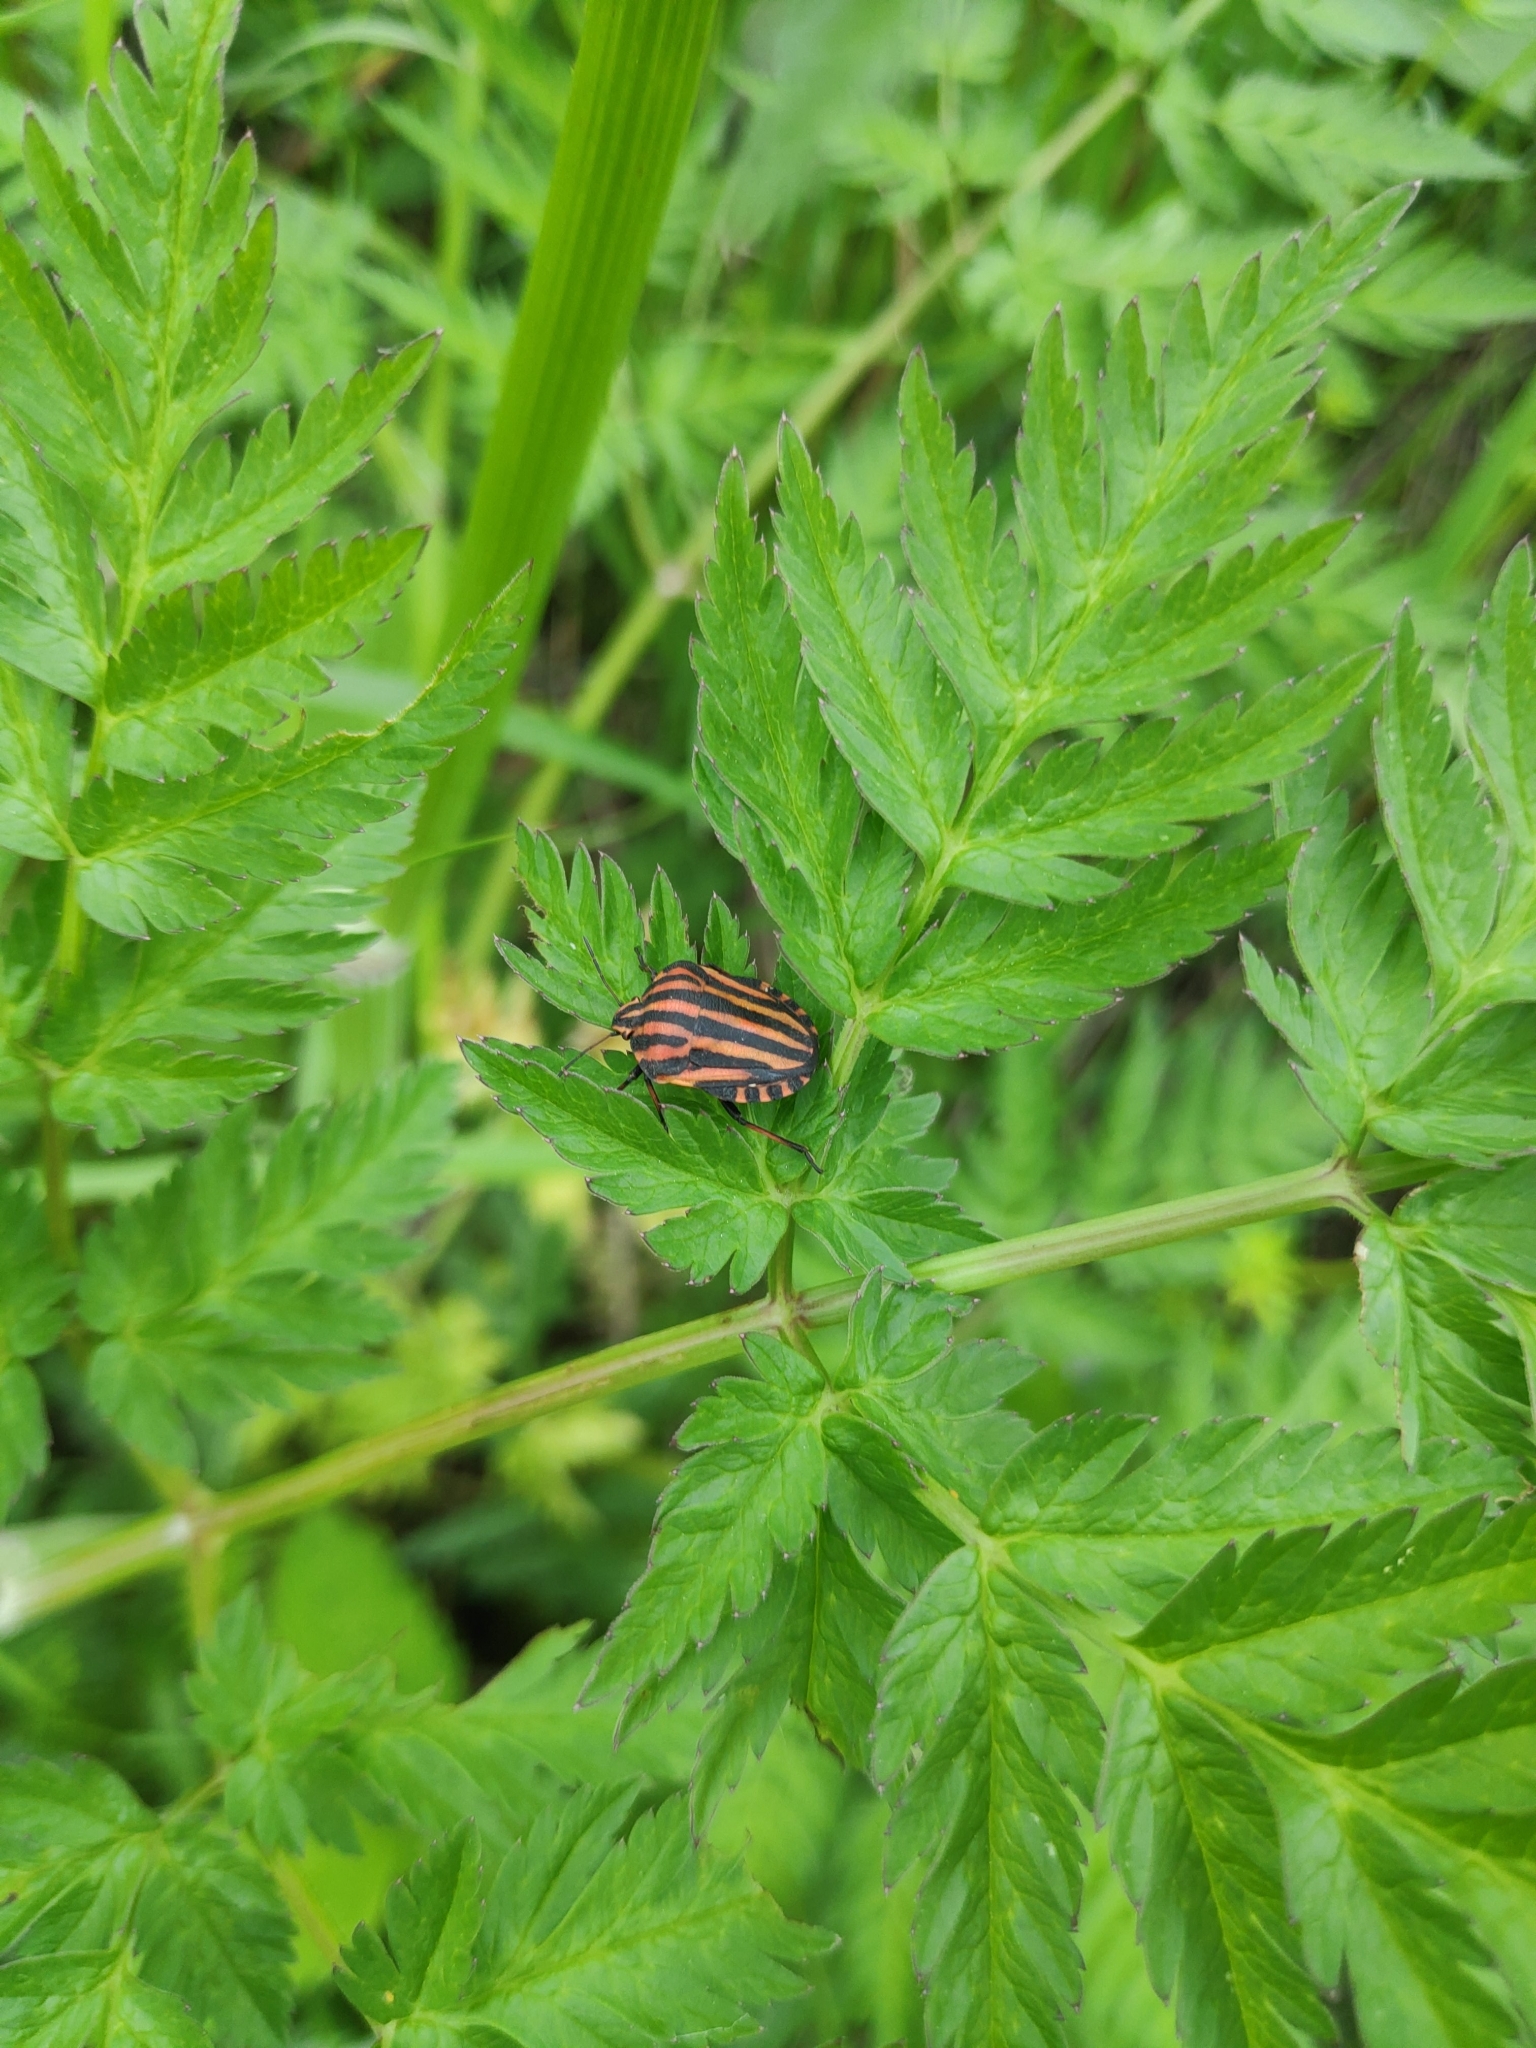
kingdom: Animalia
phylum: Arthropoda
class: Insecta
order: Hemiptera
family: Pentatomidae
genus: Graphosoma
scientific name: Graphosoma italicum
